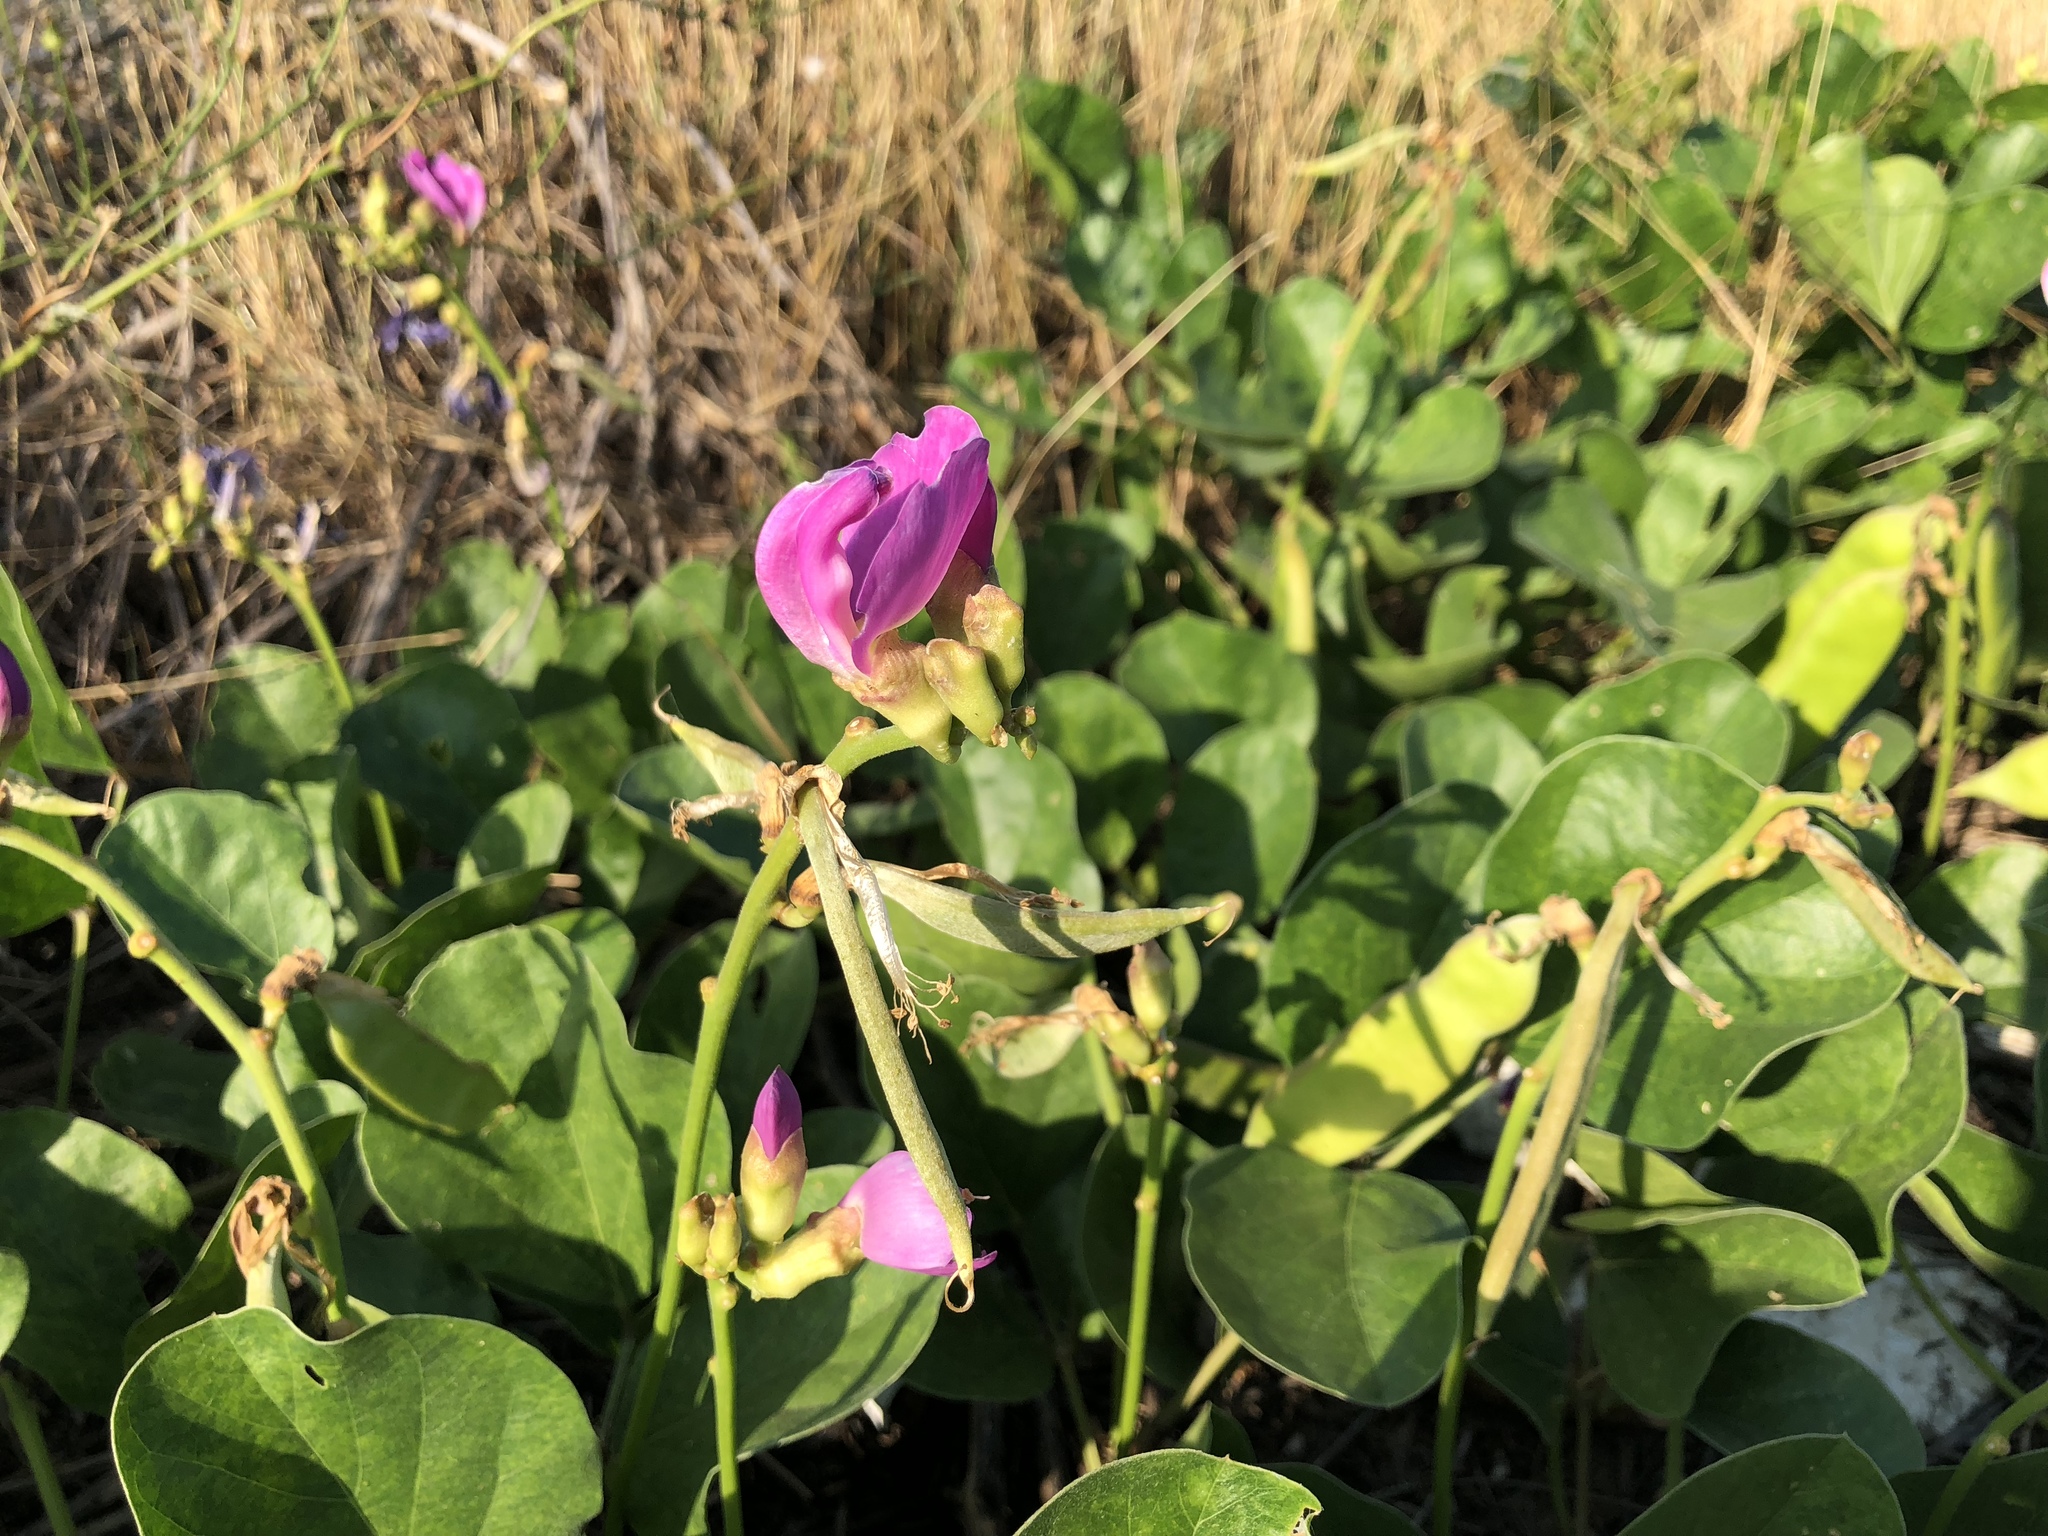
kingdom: Plantae
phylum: Tracheophyta
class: Magnoliopsida
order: Fabales
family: Fabaceae
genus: Canavalia
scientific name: Canavalia rosea
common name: Beach-bean
